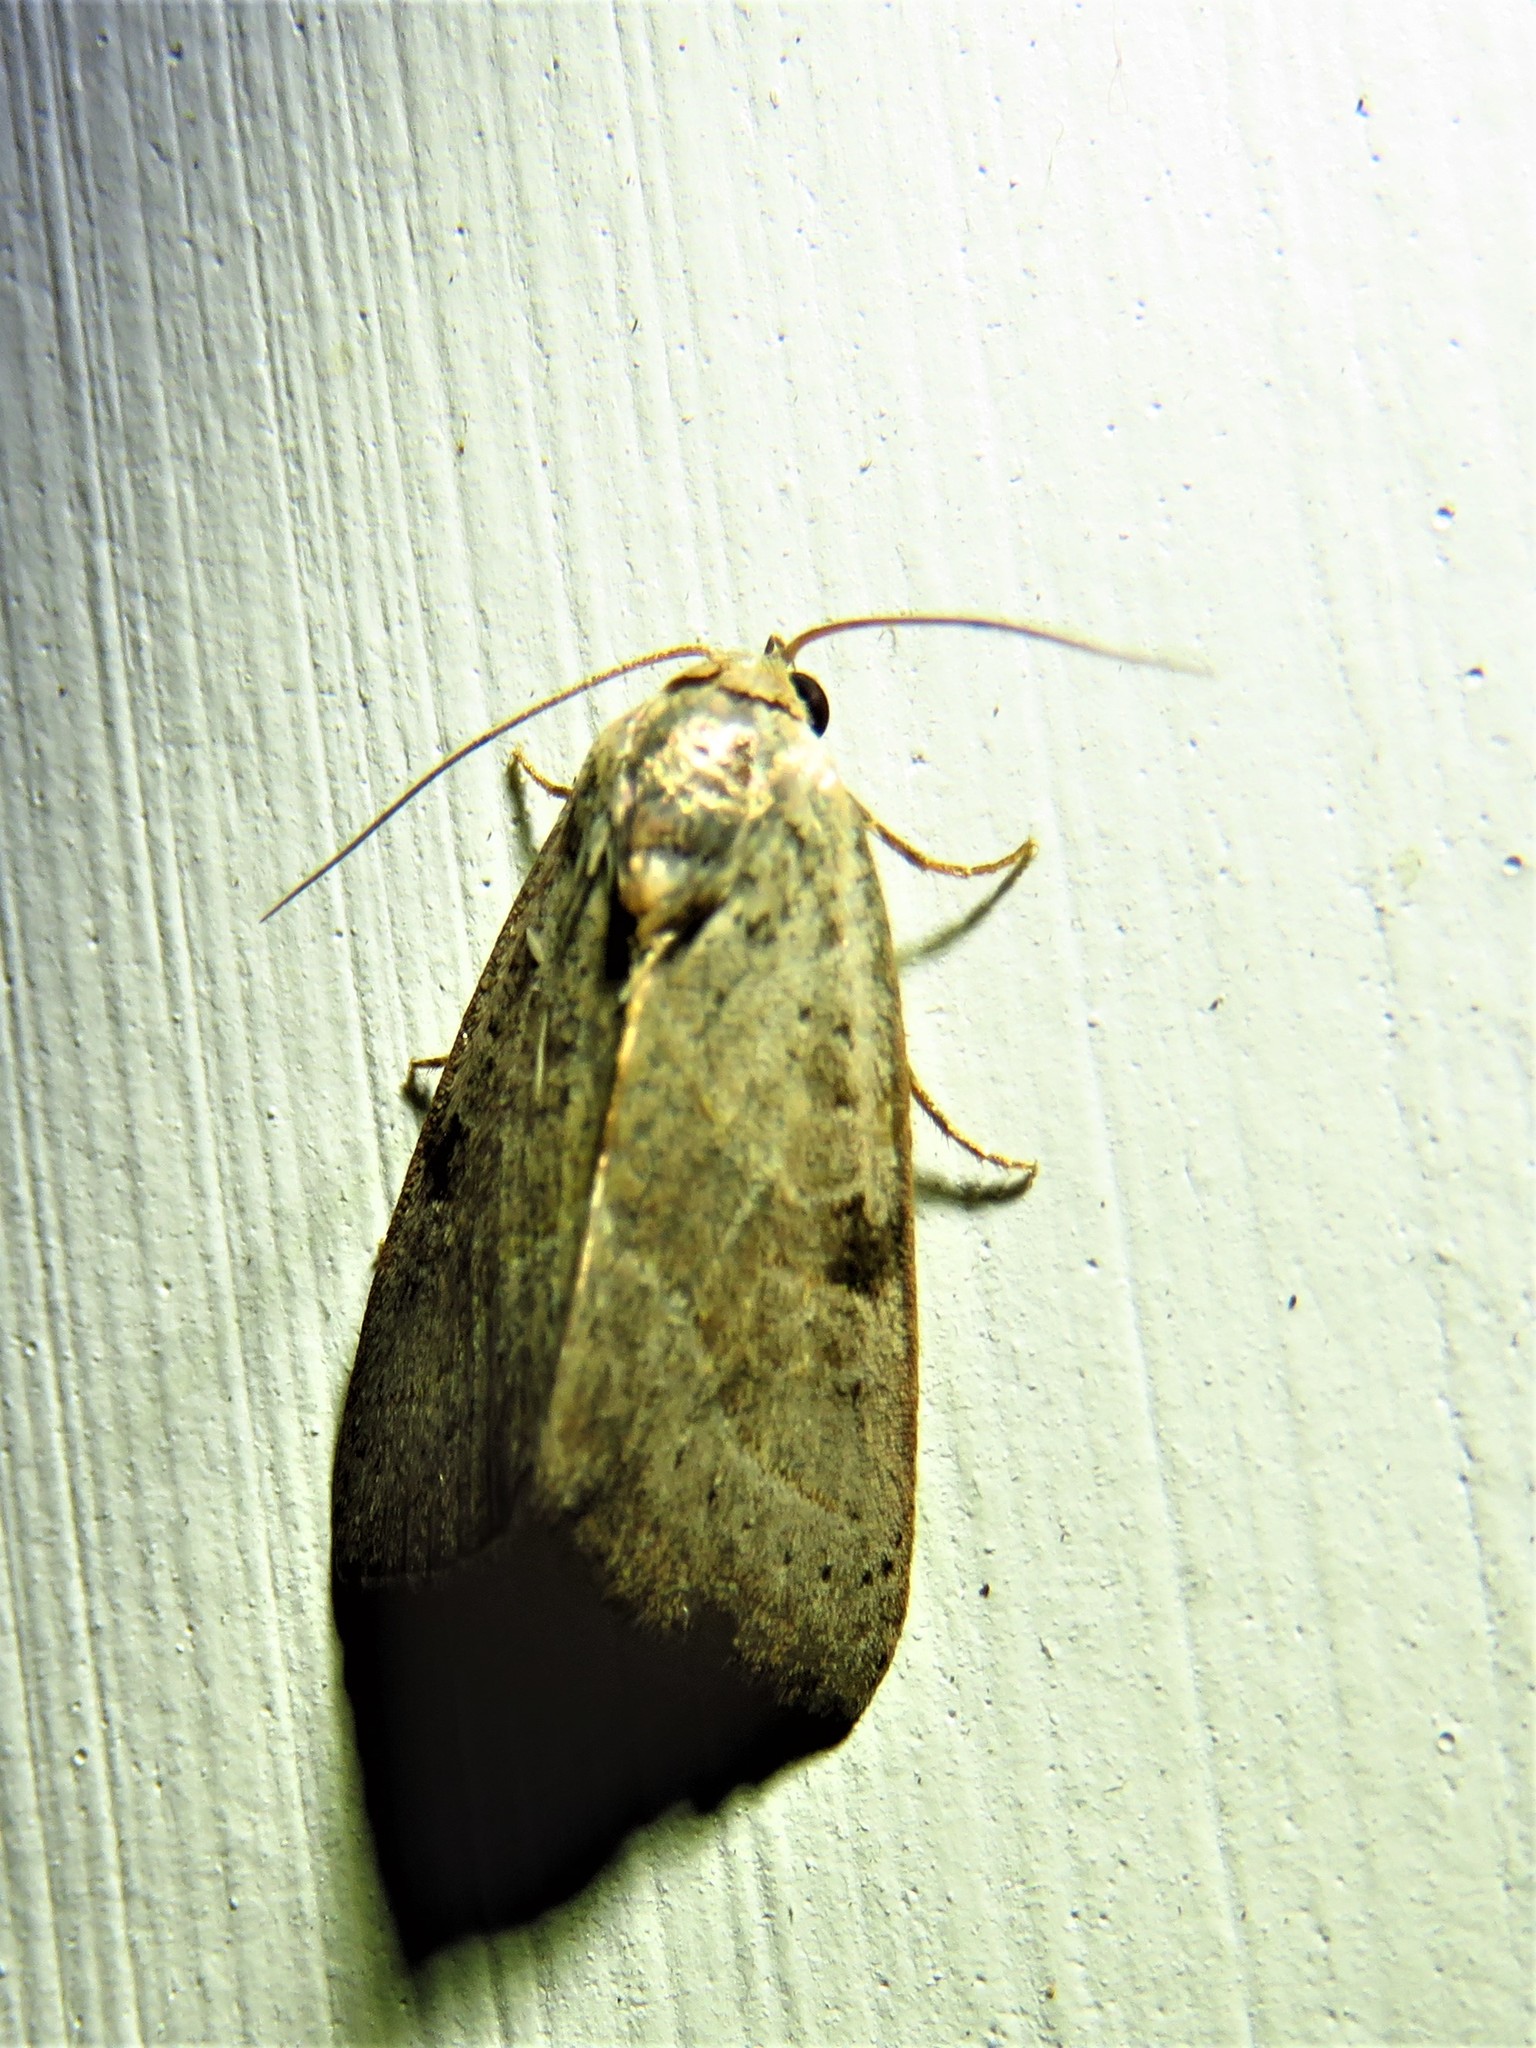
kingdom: Animalia
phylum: Arthropoda
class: Insecta
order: Lepidoptera
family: Noctuidae
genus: Galgula
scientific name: Galgula partita
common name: Wedgeling
